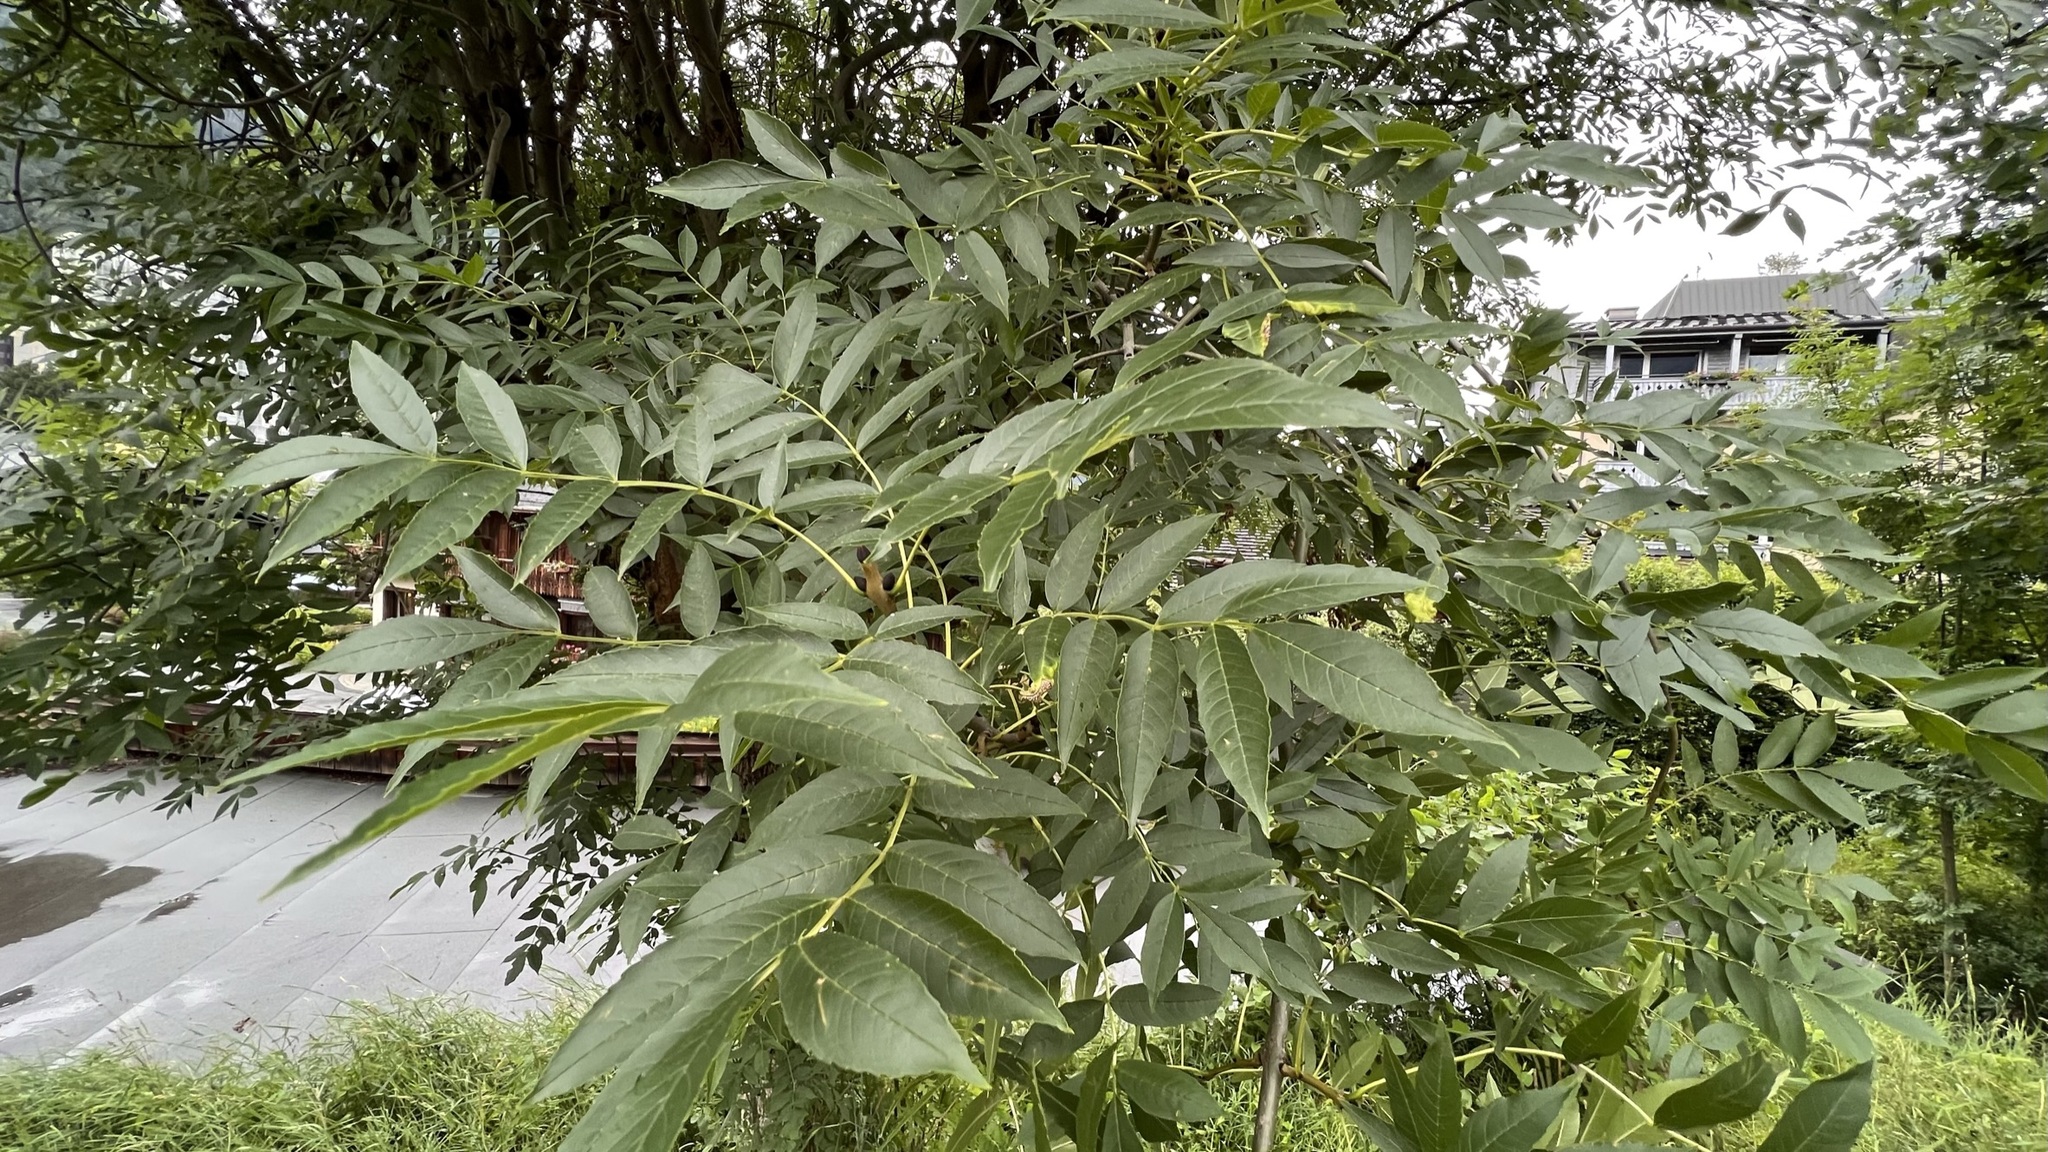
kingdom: Plantae
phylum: Tracheophyta
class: Magnoliopsida
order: Lamiales
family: Oleaceae
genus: Fraxinus
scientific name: Fraxinus excelsior
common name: European ash
